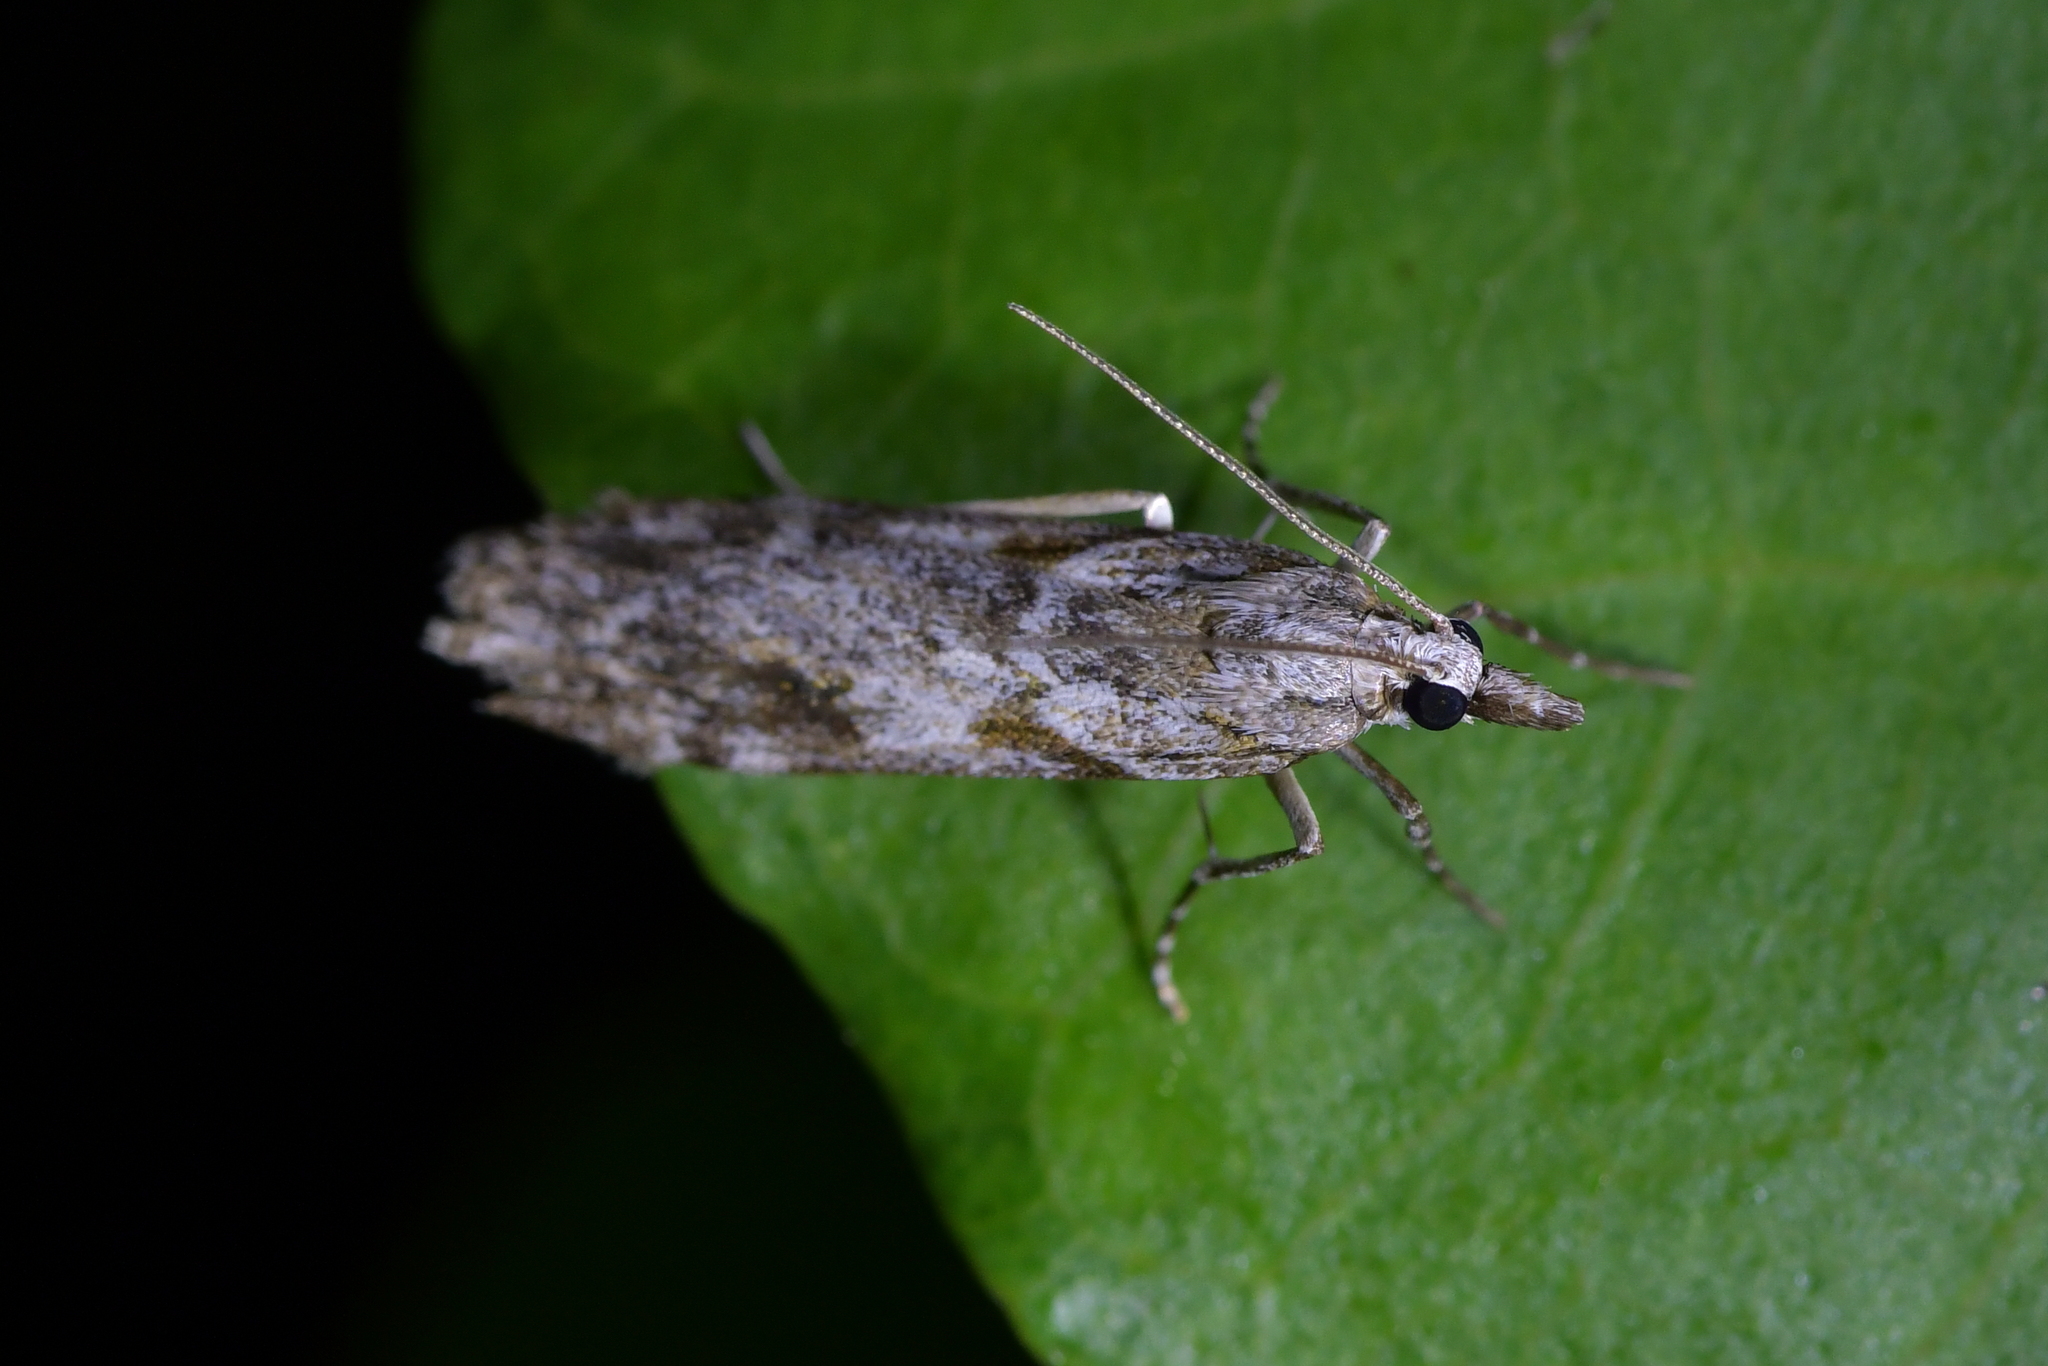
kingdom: Animalia
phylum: Arthropoda
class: Insecta
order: Lepidoptera
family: Crambidae
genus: Scoparia
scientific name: Scoparia halopis
